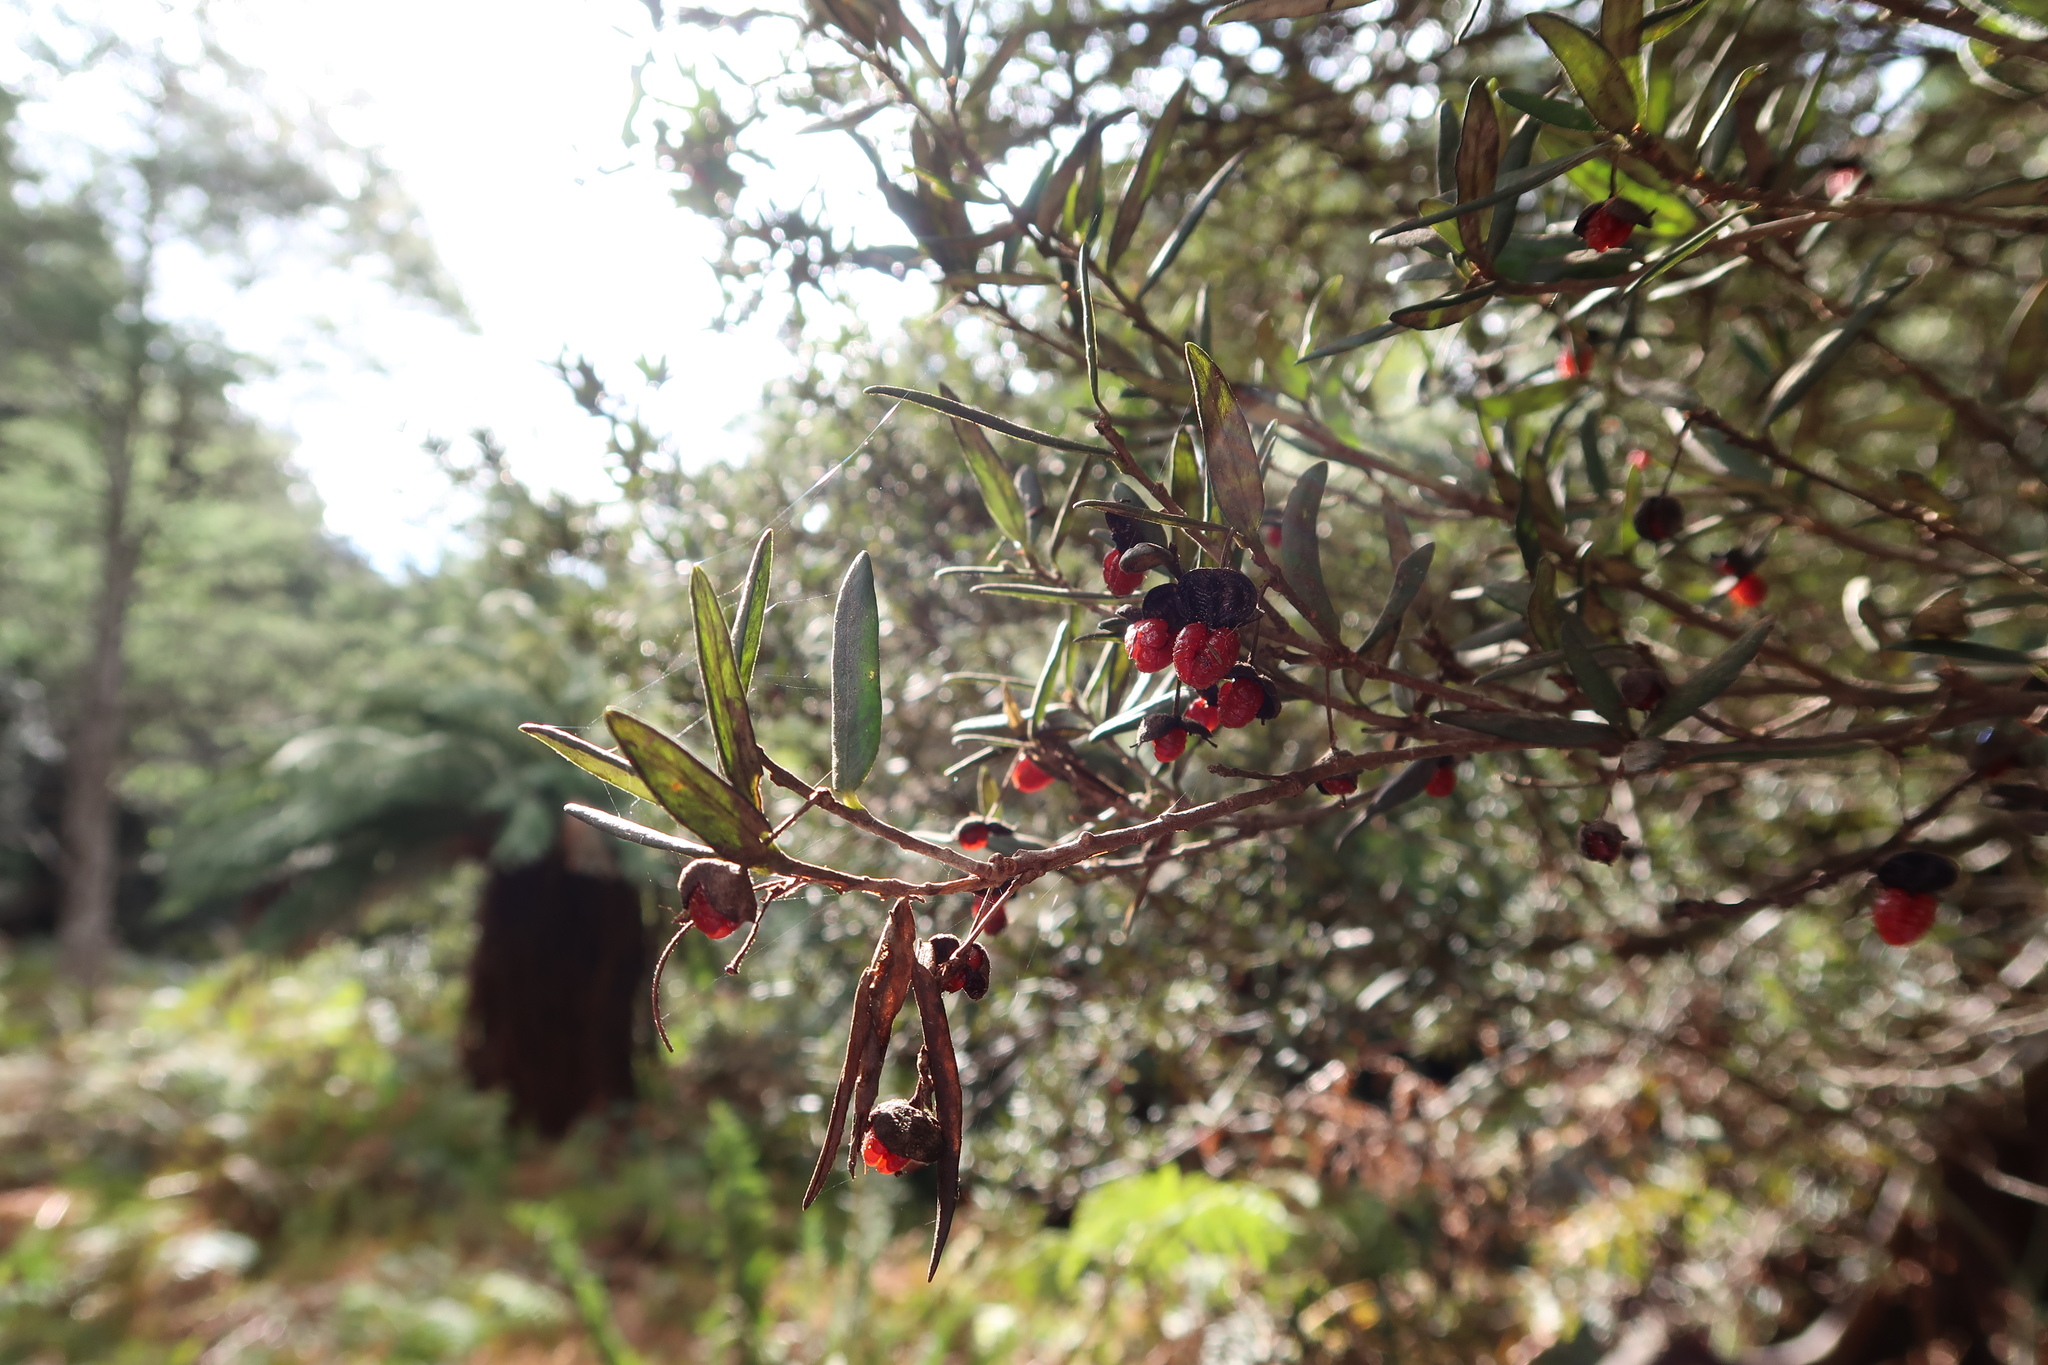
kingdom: Plantae
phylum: Tracheophyta
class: Magnoliopsida
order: Apiales
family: Pittosporaceae
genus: Pittosporum
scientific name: Pittosporum bicolor
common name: Tallowwood
